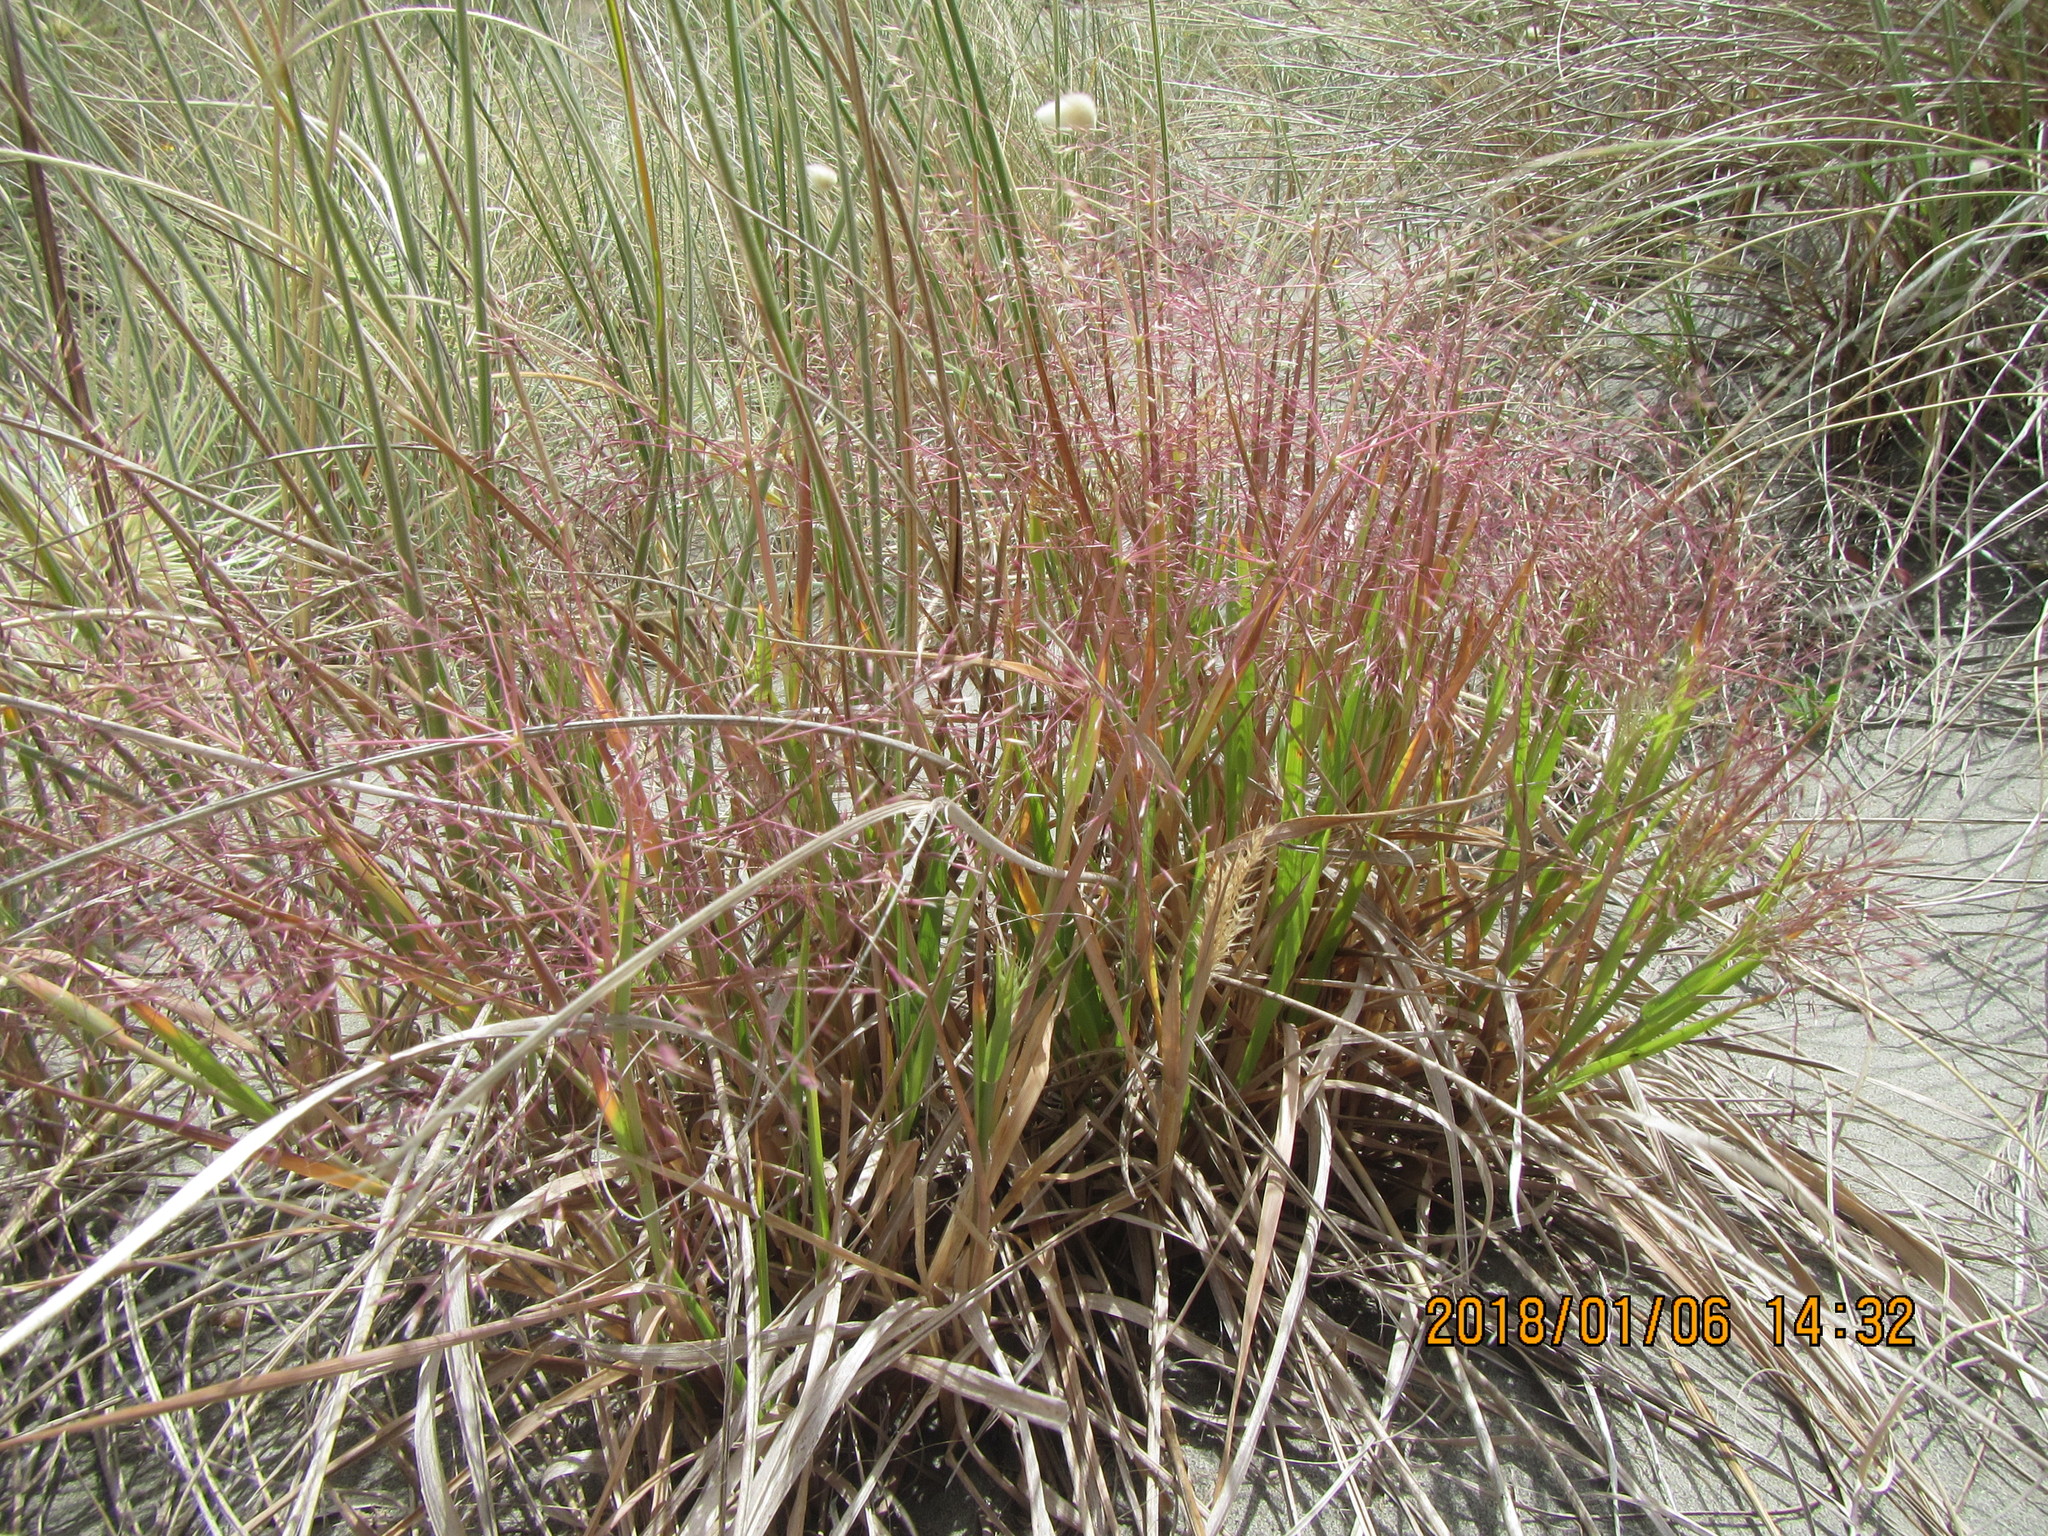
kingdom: Plantae
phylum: Tracheophyta
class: Liliopsida
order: Poales
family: Poaceae
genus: Lachnagrostis
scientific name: Lachnagrostis billardierei
